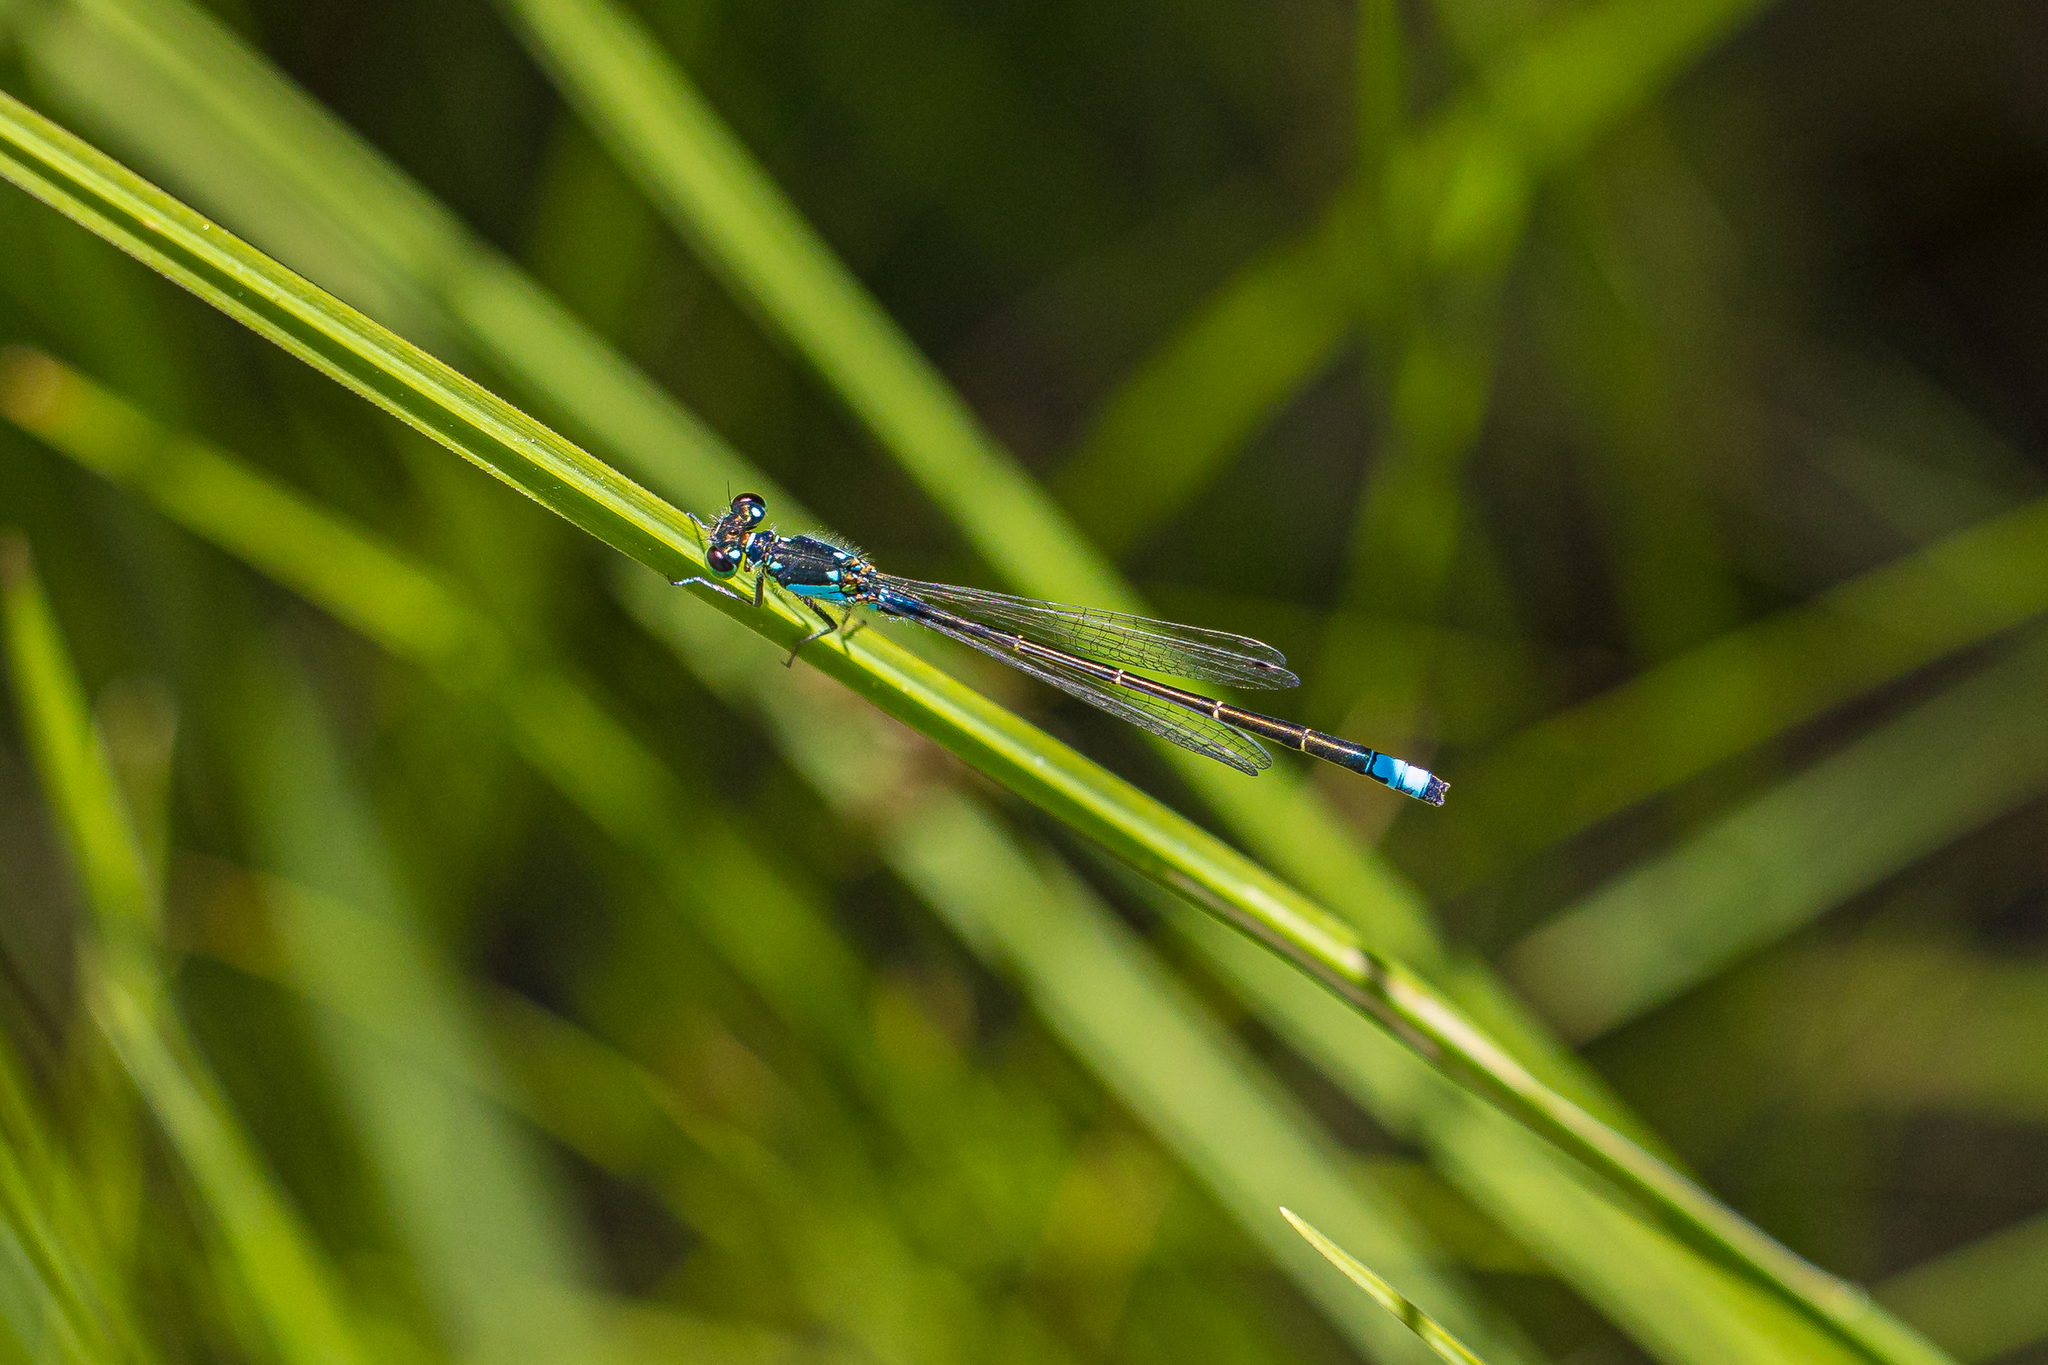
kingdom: Animalia
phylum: Arthropoda
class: Insecta
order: Odonata
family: Coenagrionidae
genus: Ischnura
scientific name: Ischnura damula
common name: Plains forktail
